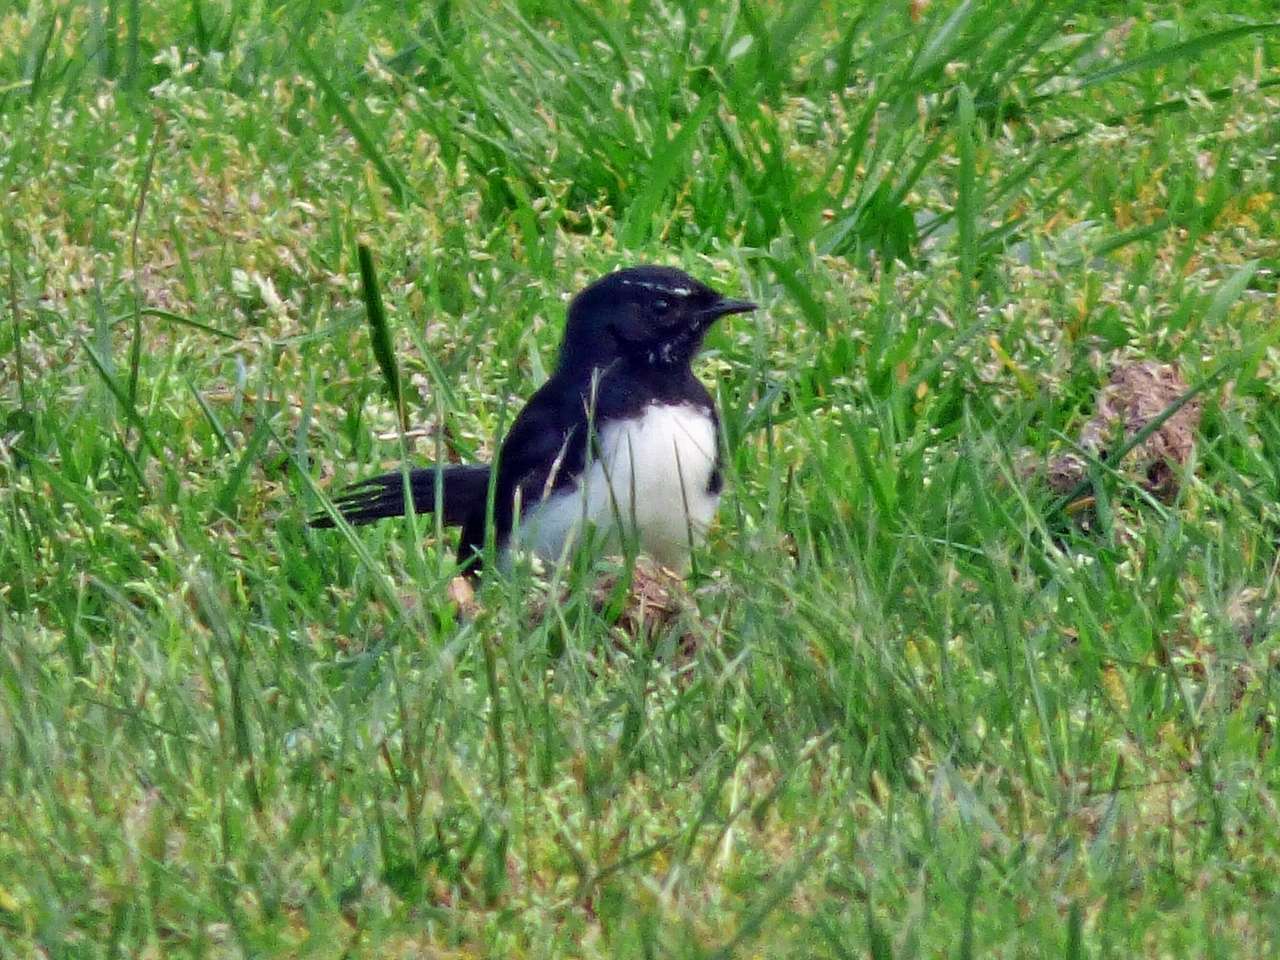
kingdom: Animalia
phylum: Chordata
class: Aves
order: Passeriformes
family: Rhipiduridae
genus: Rhipidura
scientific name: Rhipidura leucophrys
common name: Willie wagtail
